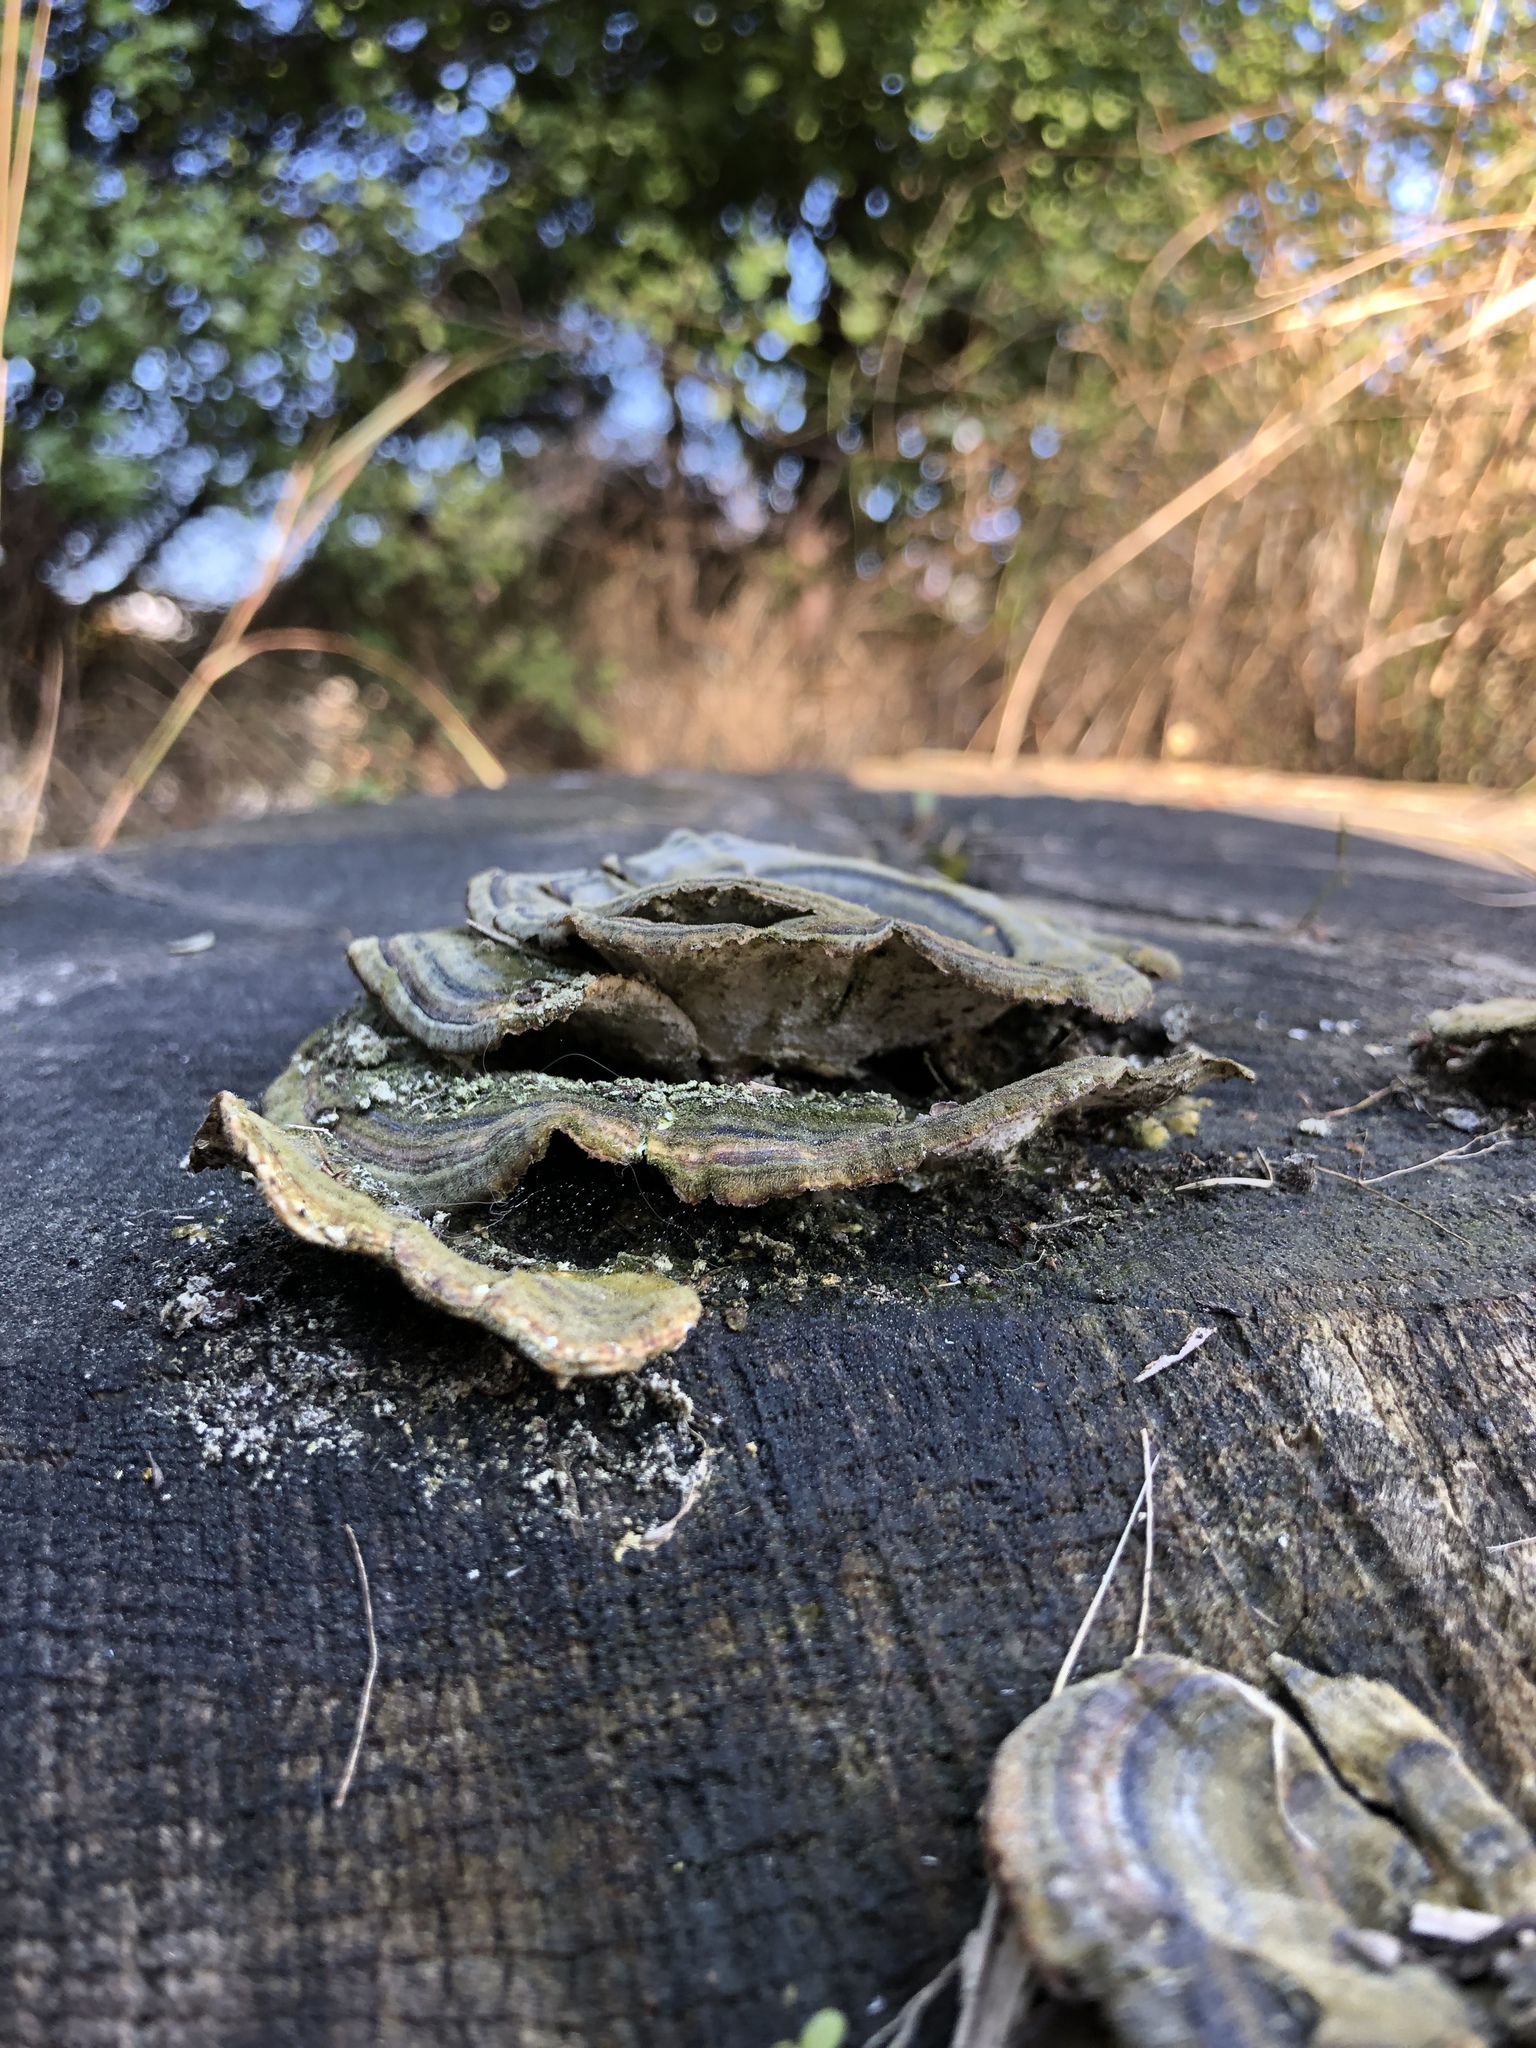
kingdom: Fungi
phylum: Basidiomycota
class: Agaricomycetes
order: Polyporales
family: Polyporaceae
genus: Trametes
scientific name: Trametes versicolor
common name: Turkeytail
